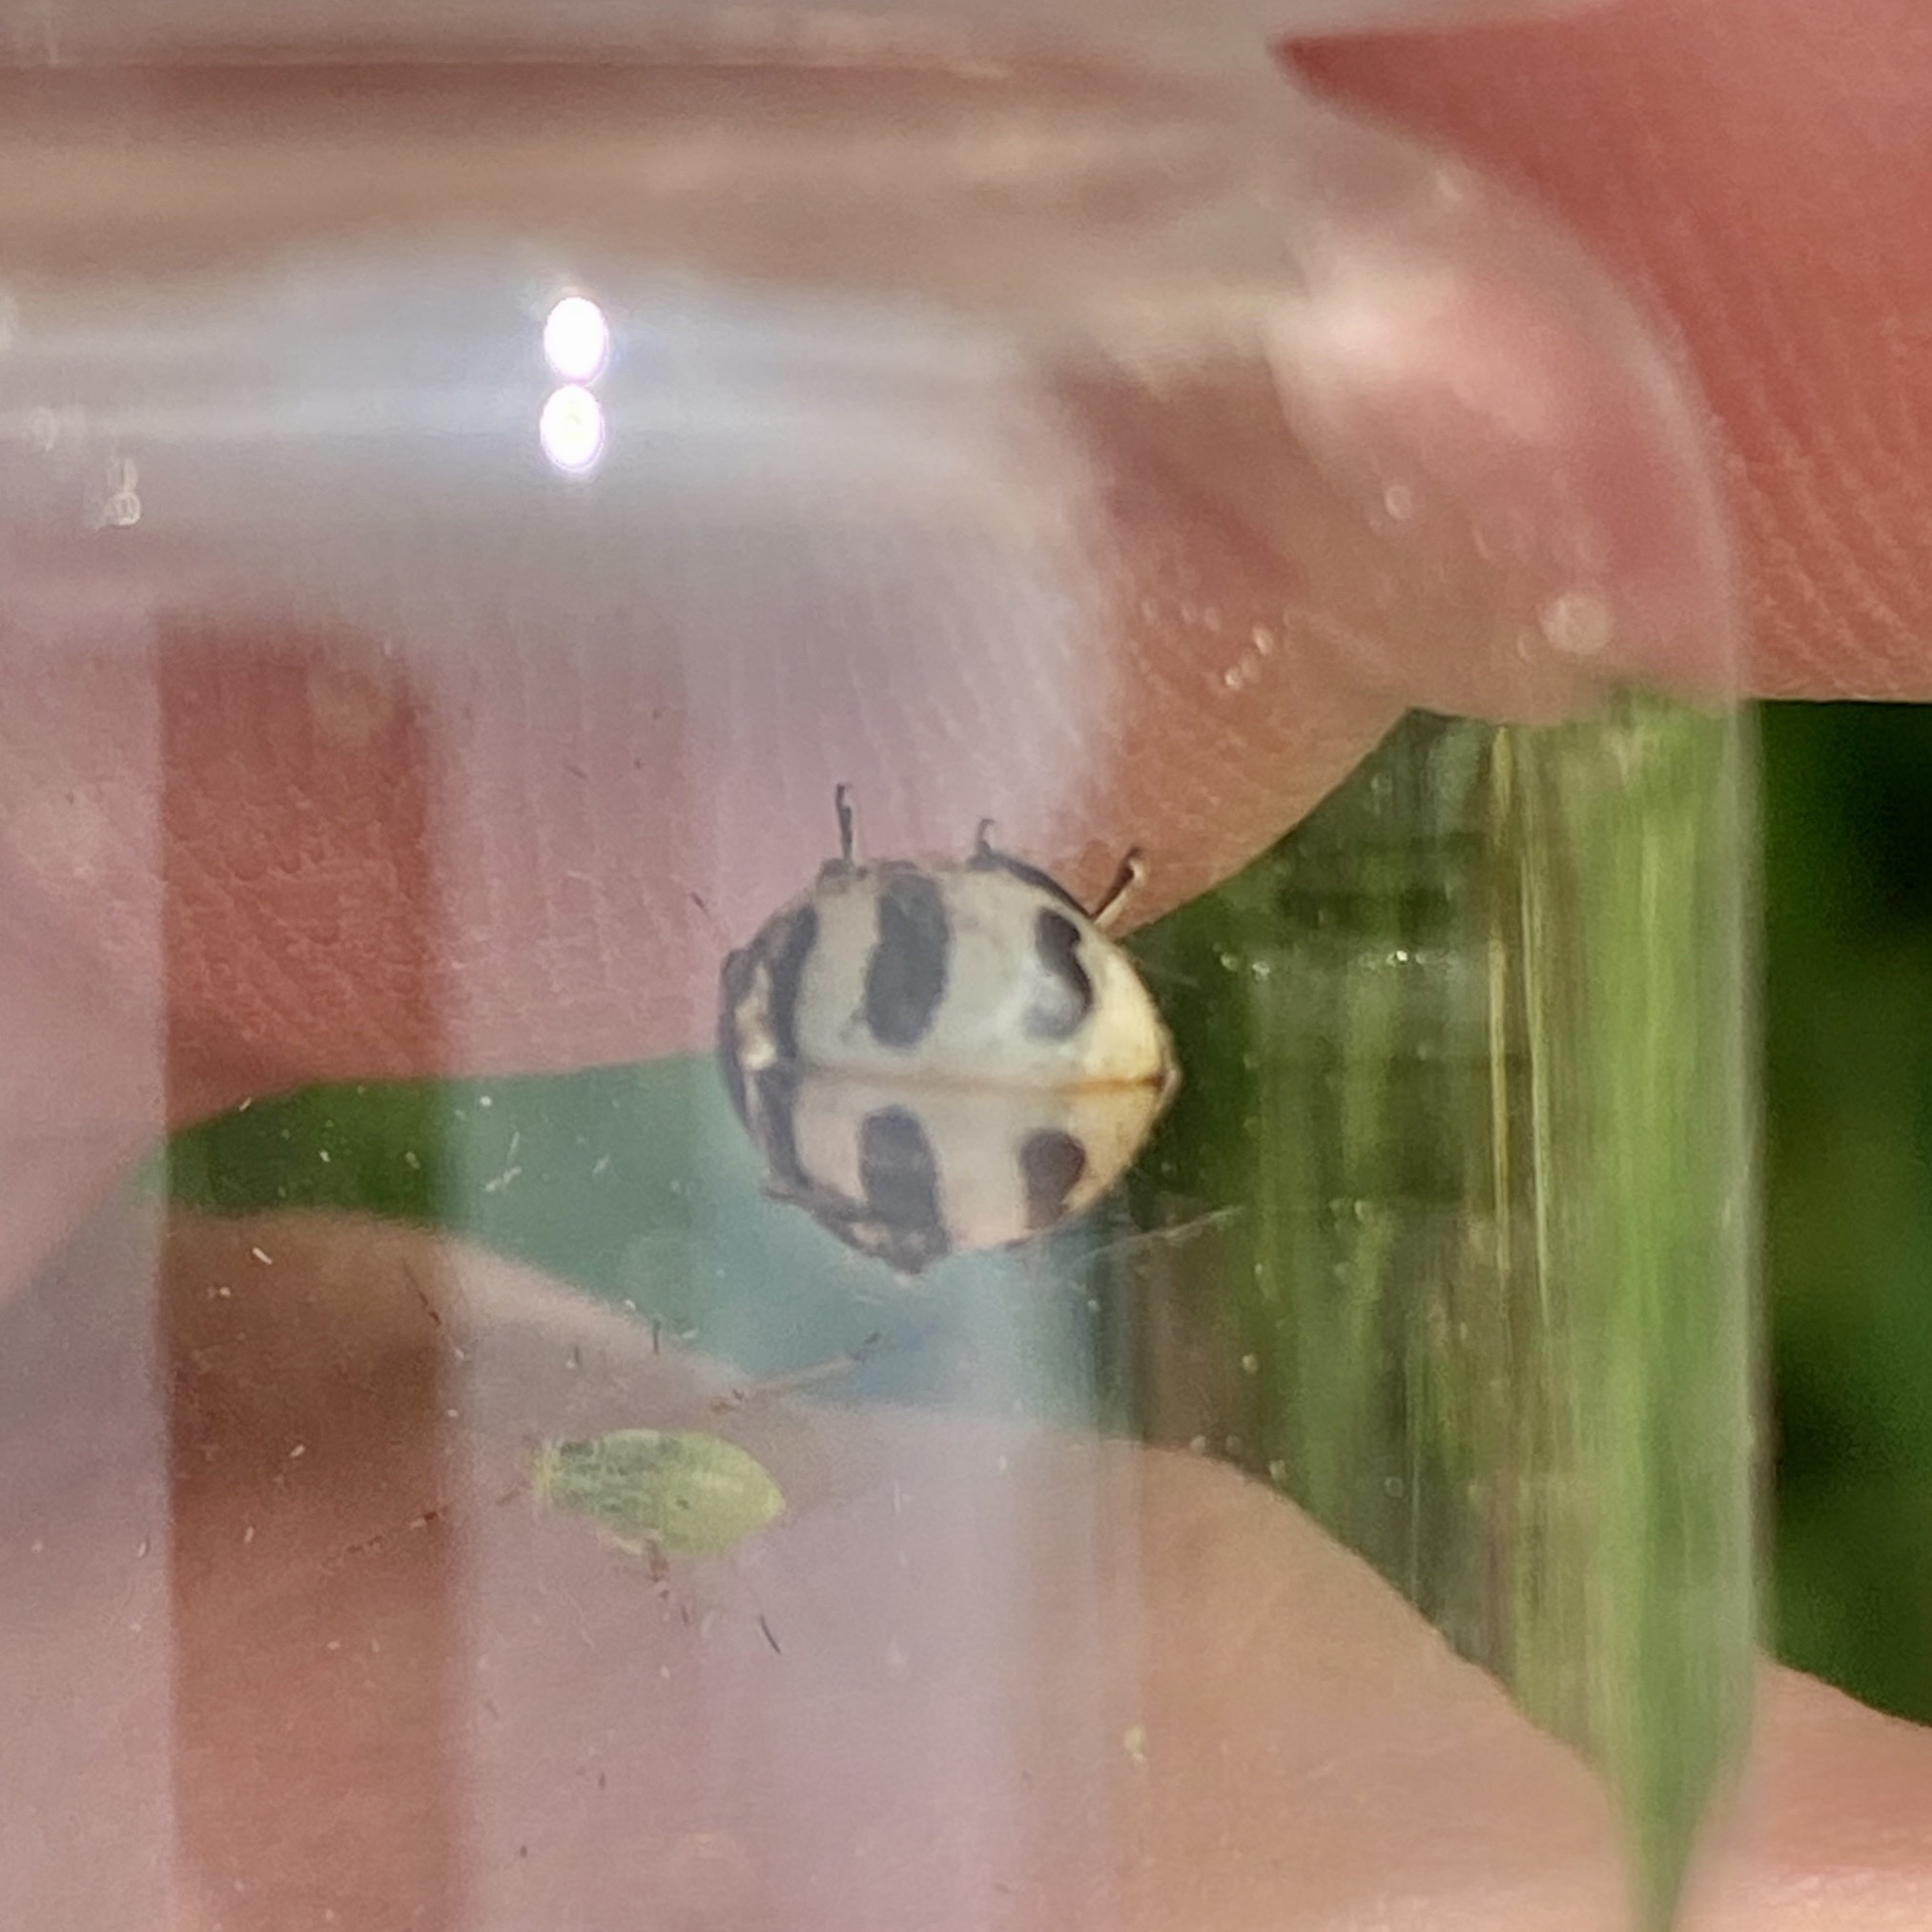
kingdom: Animalia
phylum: Arthropoda
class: Insecta
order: Coleoptera
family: Coccinellidae
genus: Coccinella
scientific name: Coccinella trifasciata
